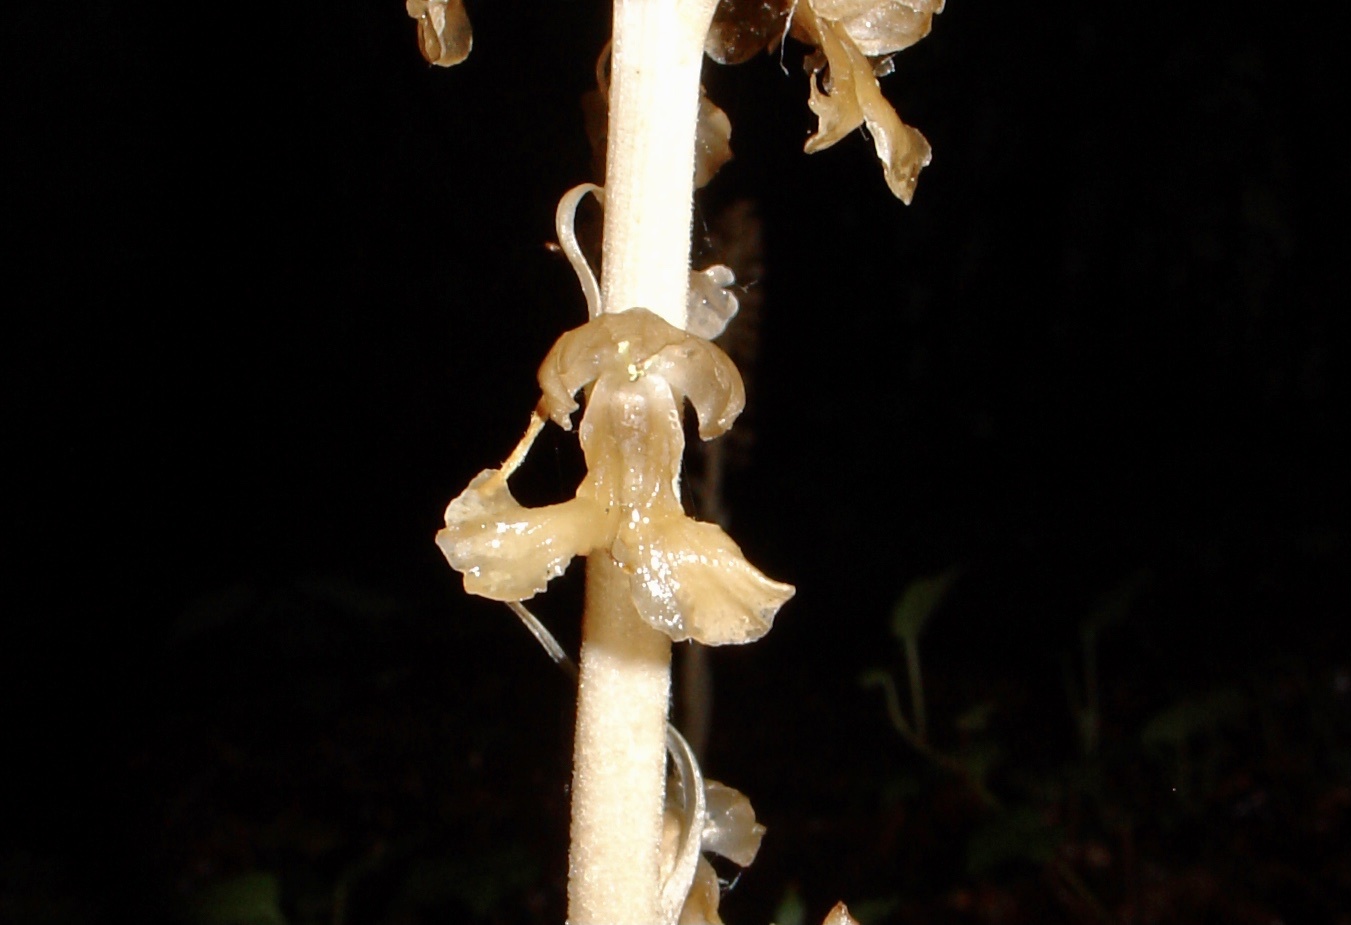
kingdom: Plantae
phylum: Tracheophyta
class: Liliopsida
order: Asparagales
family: Orchidaceae
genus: Neottia
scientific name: Neottia nidus-avis
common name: Bird's-nest orchid
